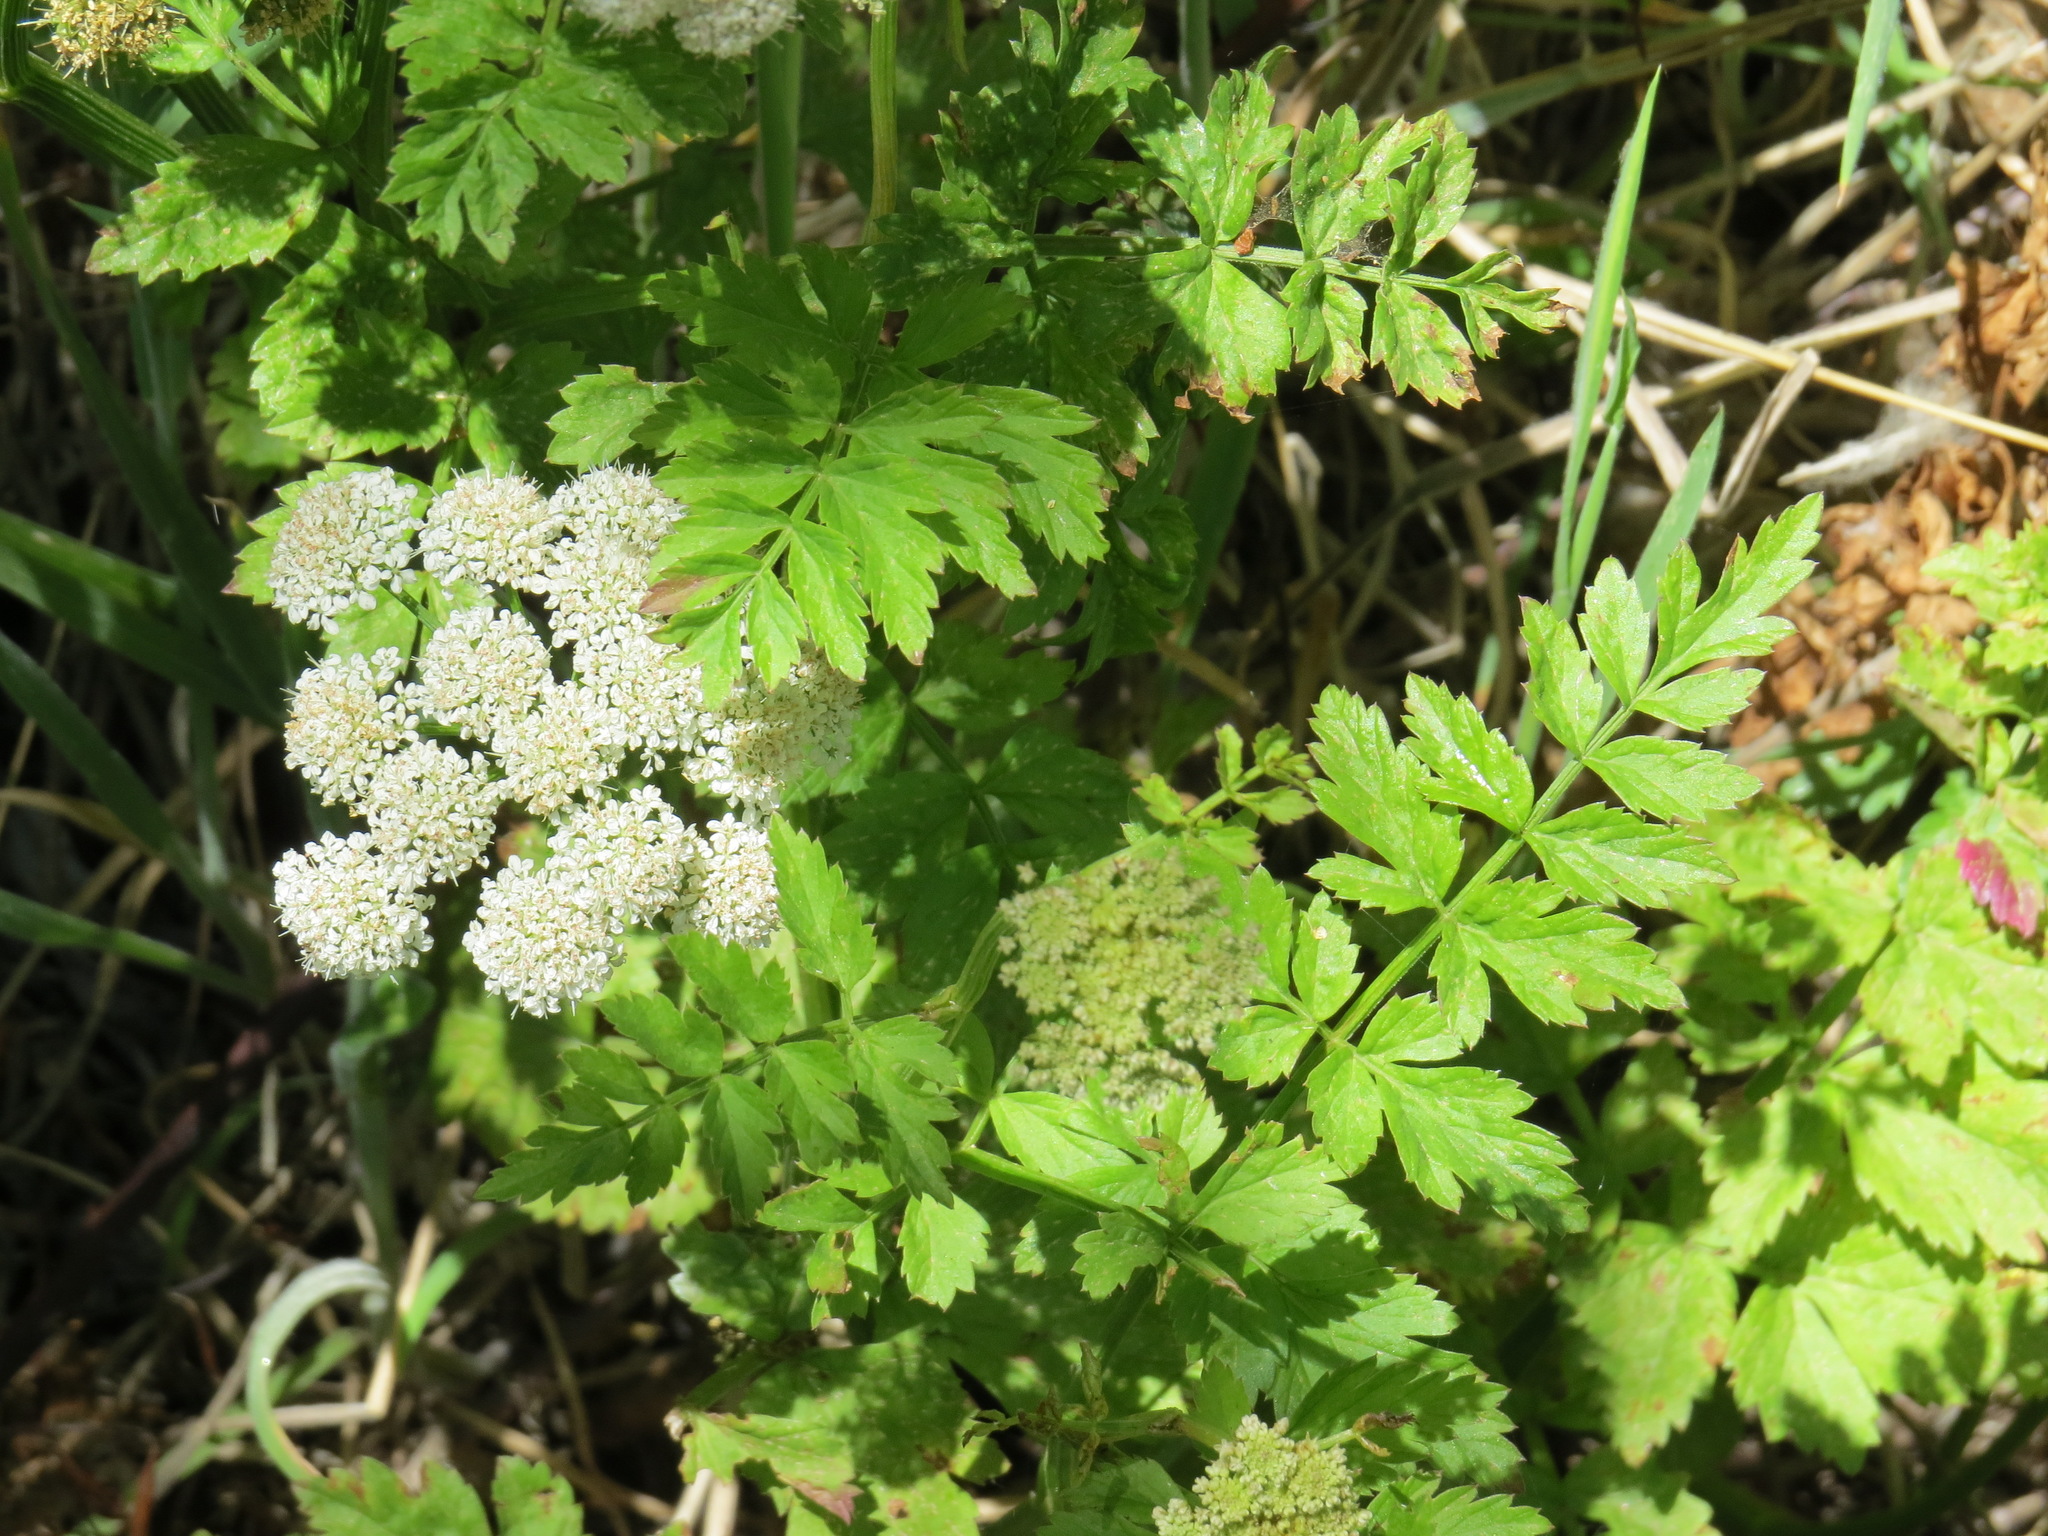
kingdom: Plantae
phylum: Tracheophyta
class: Magnoliopsida
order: Apiales
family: Apiaceae
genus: Oenanthe
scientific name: Oenanthe sarmentosa
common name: American water-parsley
